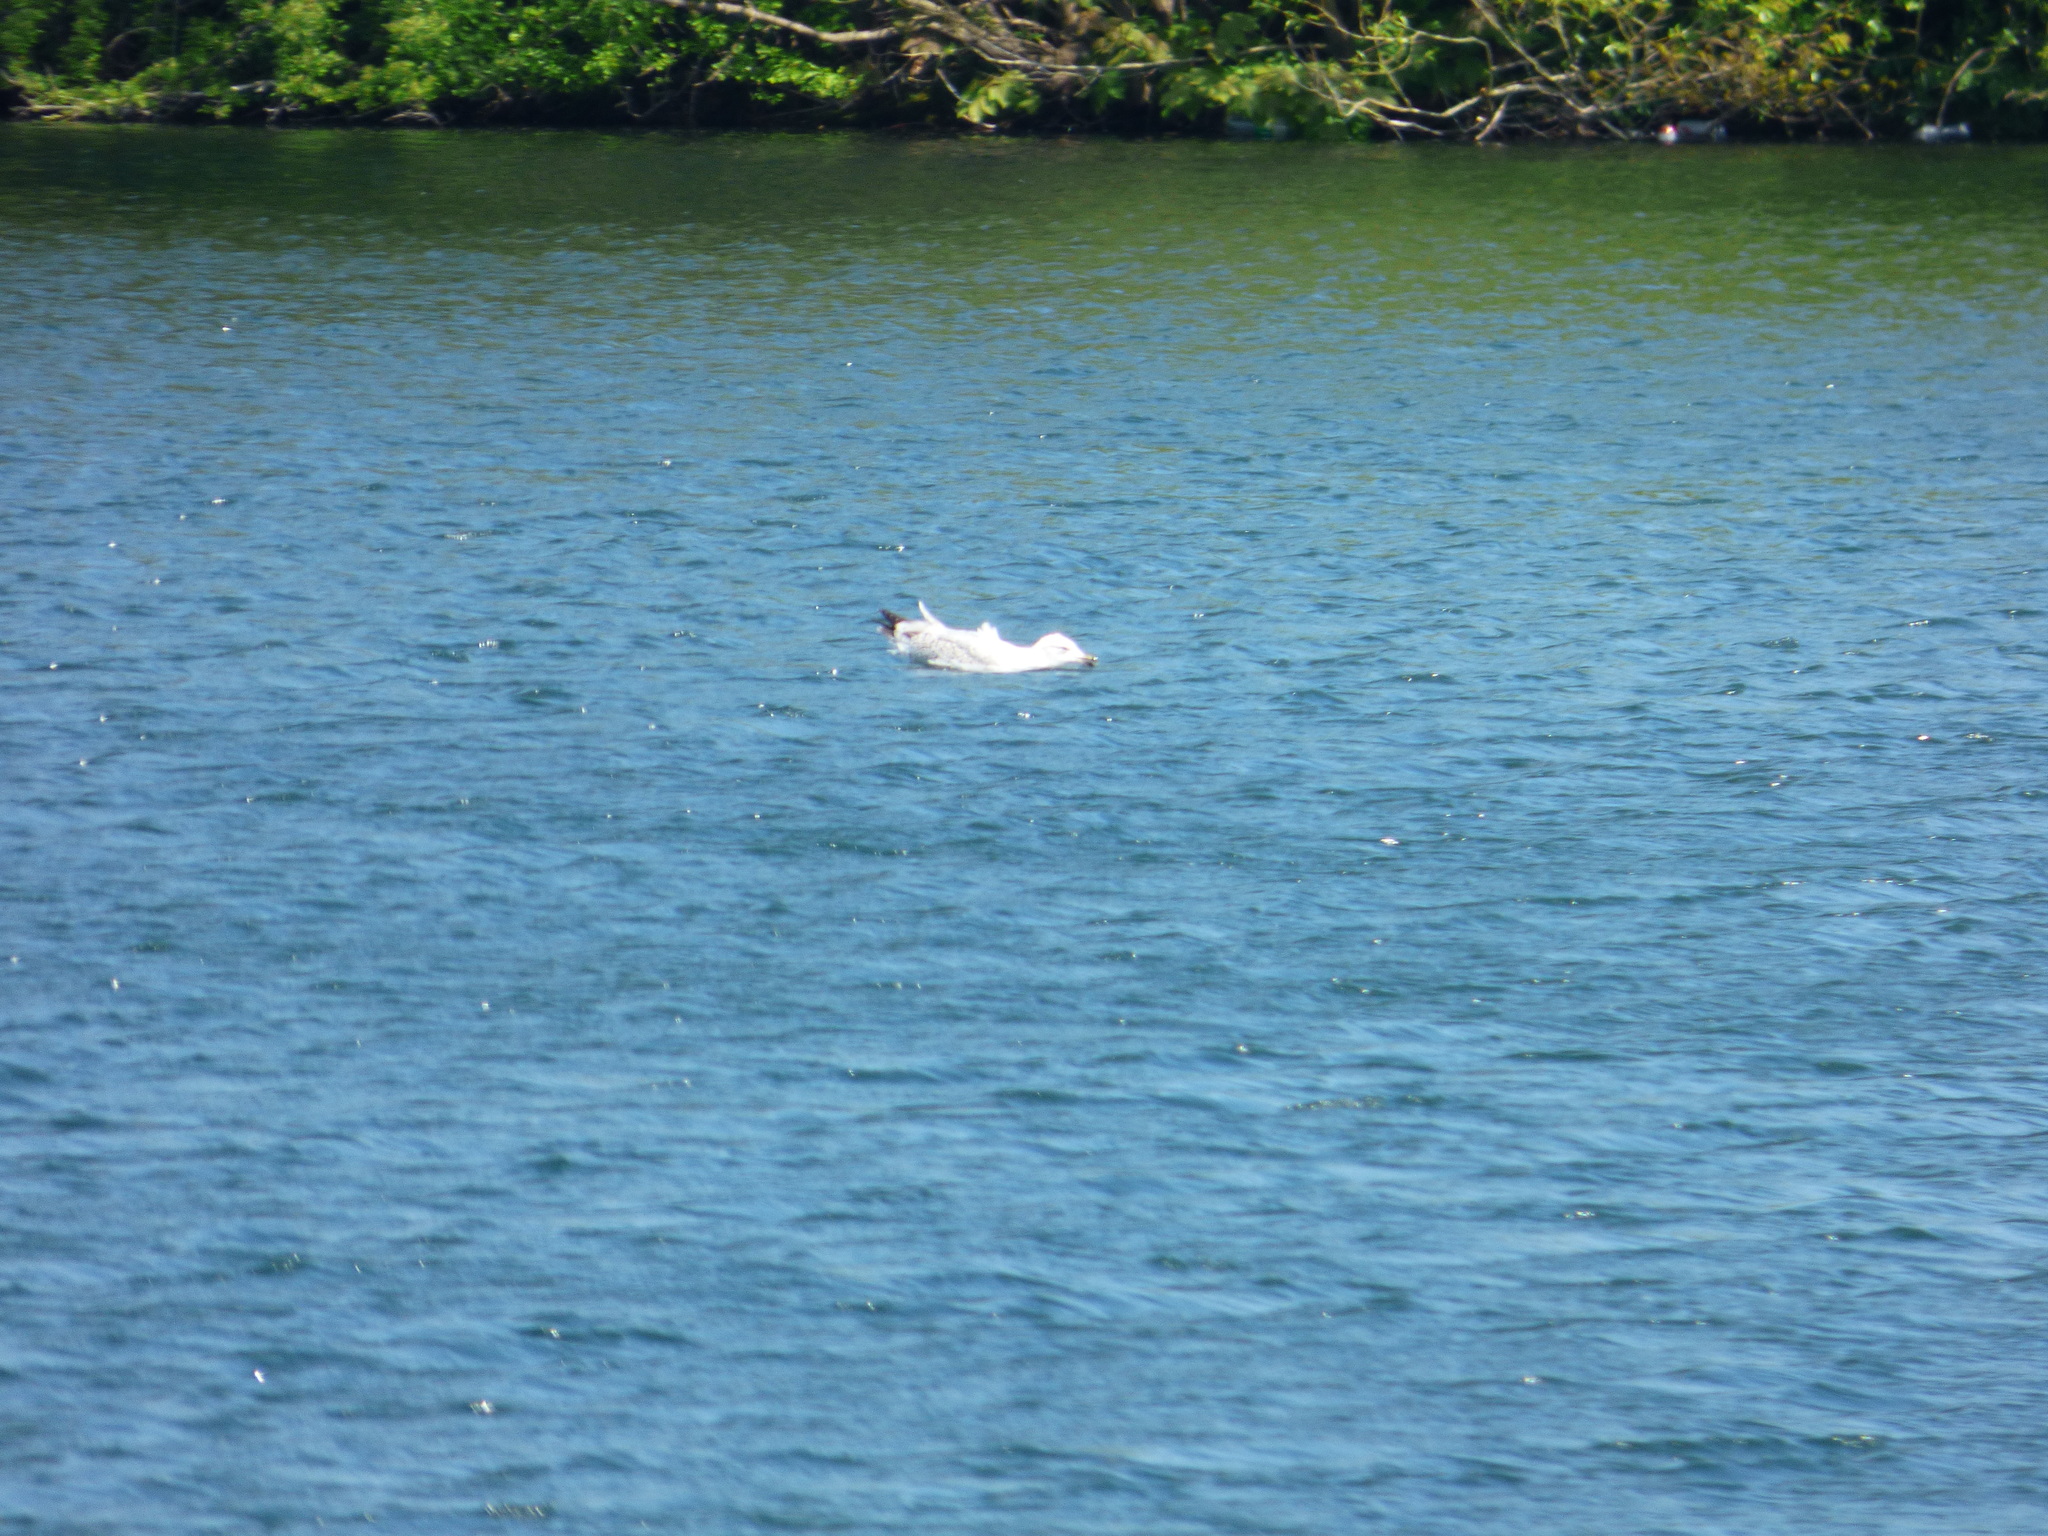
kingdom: Animalia
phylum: Chordata
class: Aves
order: Charadriiformes
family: Laridae
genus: Larus
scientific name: Larus argentatus
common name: Herring gull
